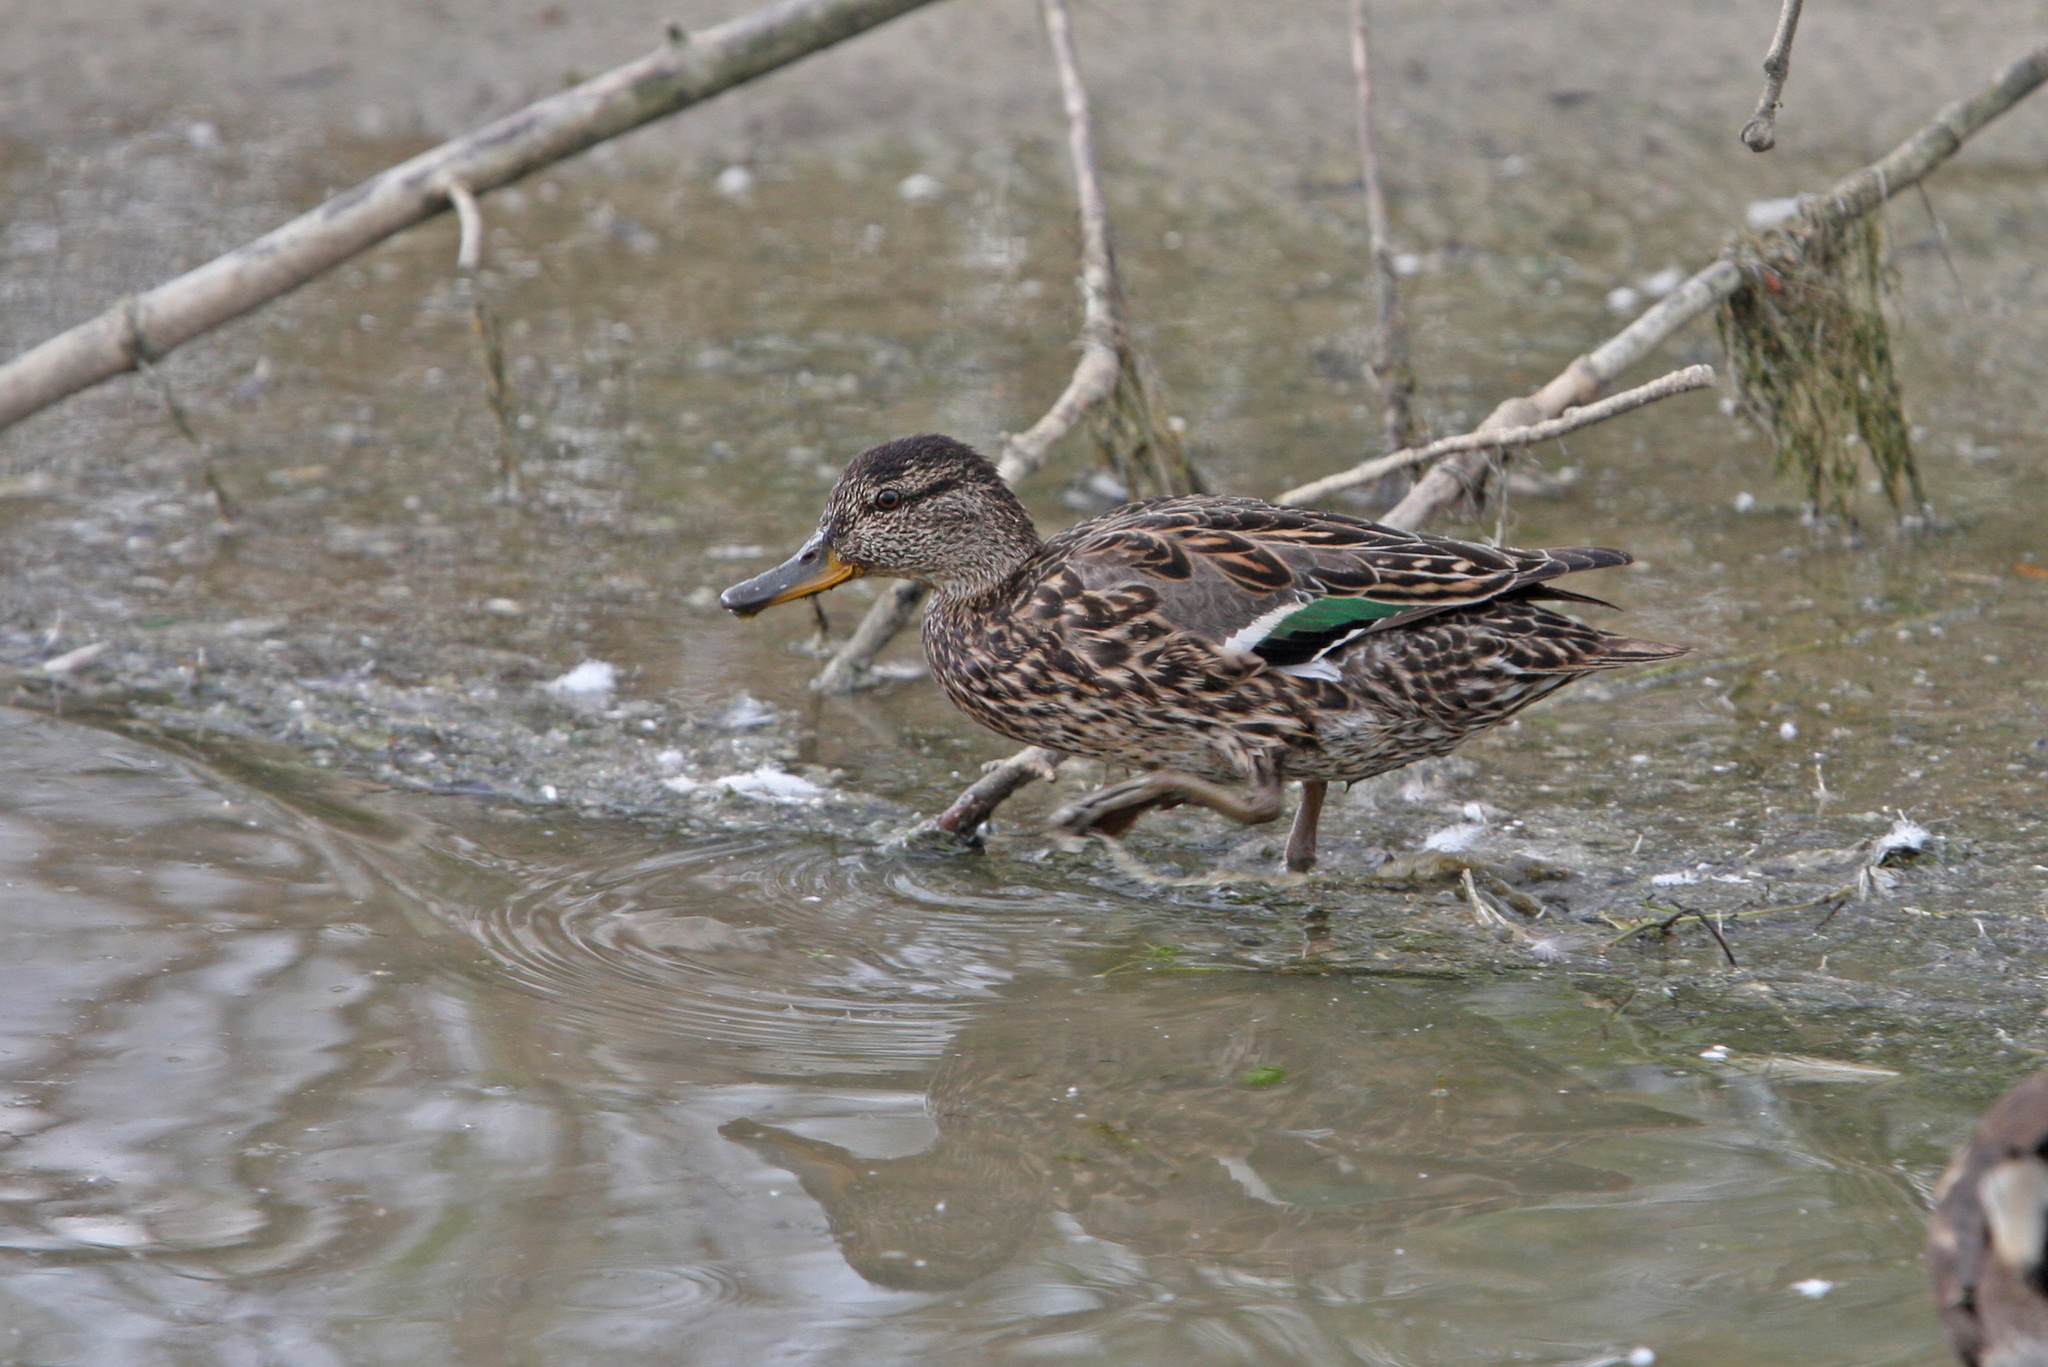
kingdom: Animalia
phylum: Chordata
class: Aves
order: Anseriformes
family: Anatidae
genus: Anas
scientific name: Anas crecca
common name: Eurasian teal
